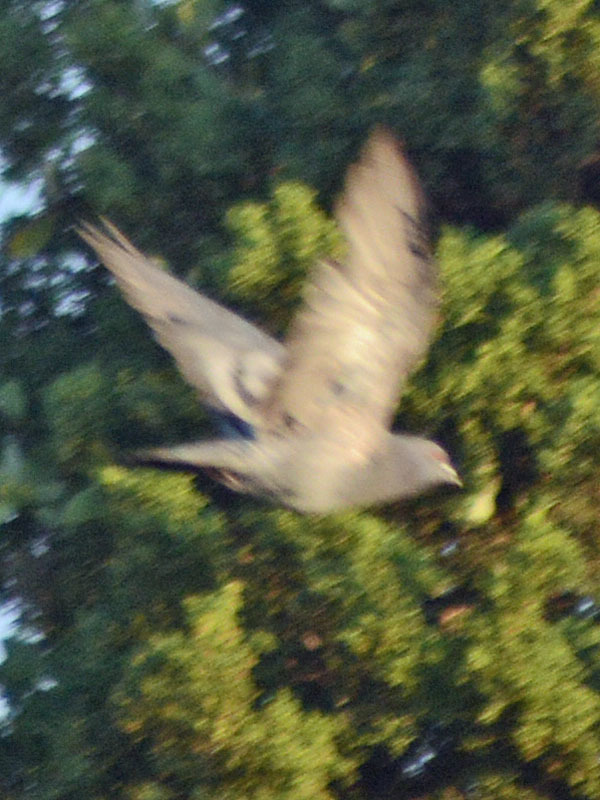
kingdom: Animalia
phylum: Chordata
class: Aves
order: Columbiformes
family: Columbidae
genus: Columba
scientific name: Columba livia
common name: Rock pigeon
